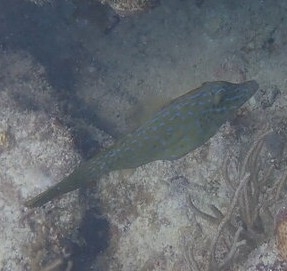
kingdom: Animalia
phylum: Chordata
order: Tetraodontiformes
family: Monacanthidae
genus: Aluterus
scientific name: Aluterus scriptus
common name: Scribbled leatherjacket filefish
